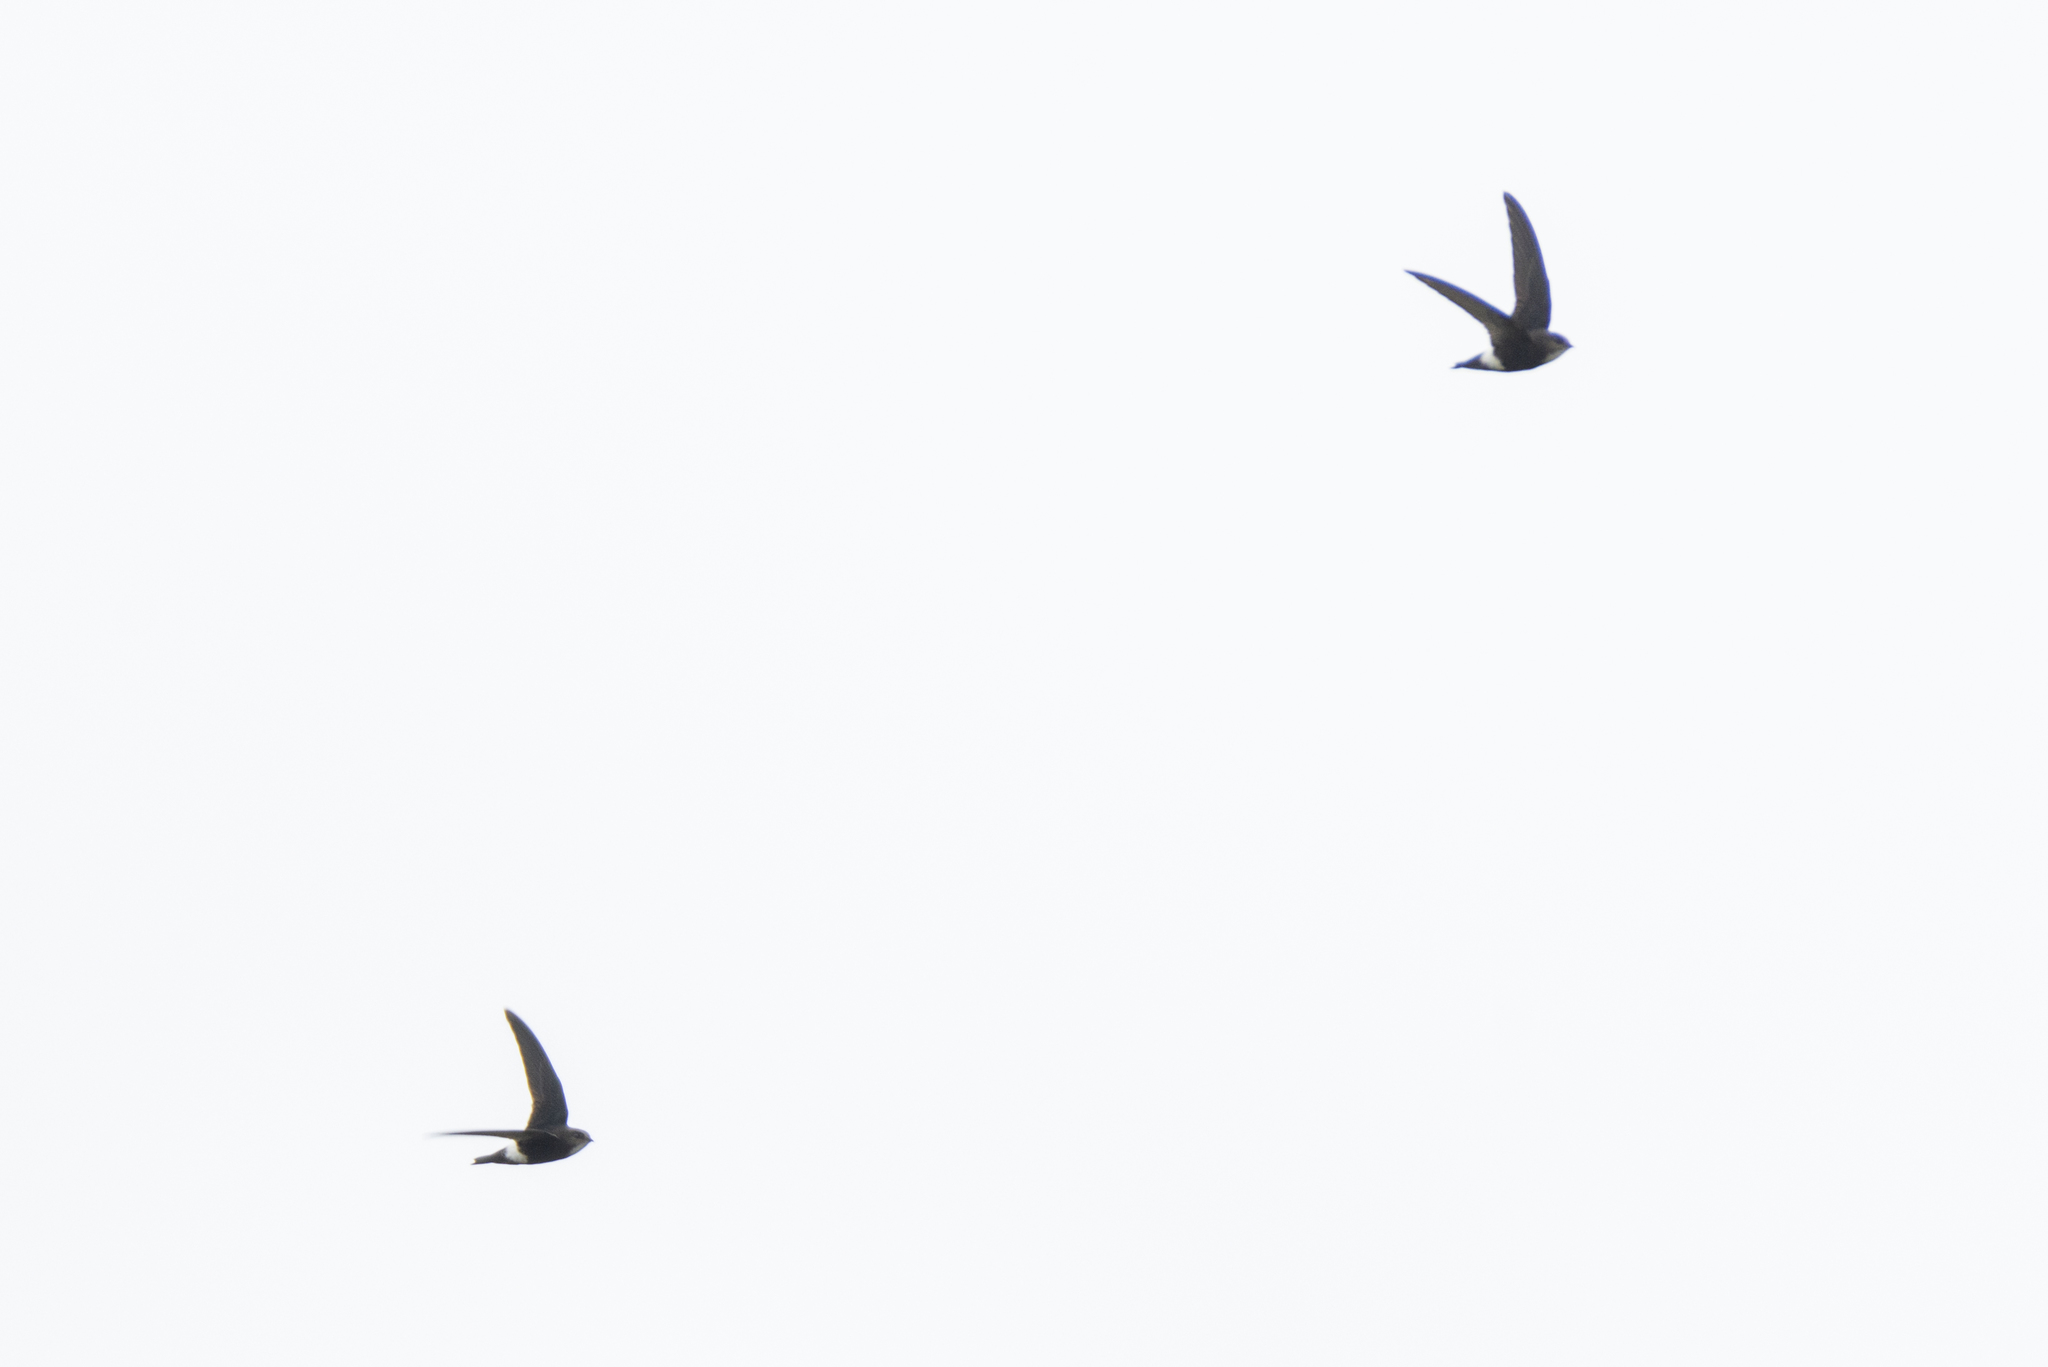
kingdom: Animalia
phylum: Chordata
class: Aves
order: Apodiformes
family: Apodidae
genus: Apus
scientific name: Apus nipalensis
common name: House swift
